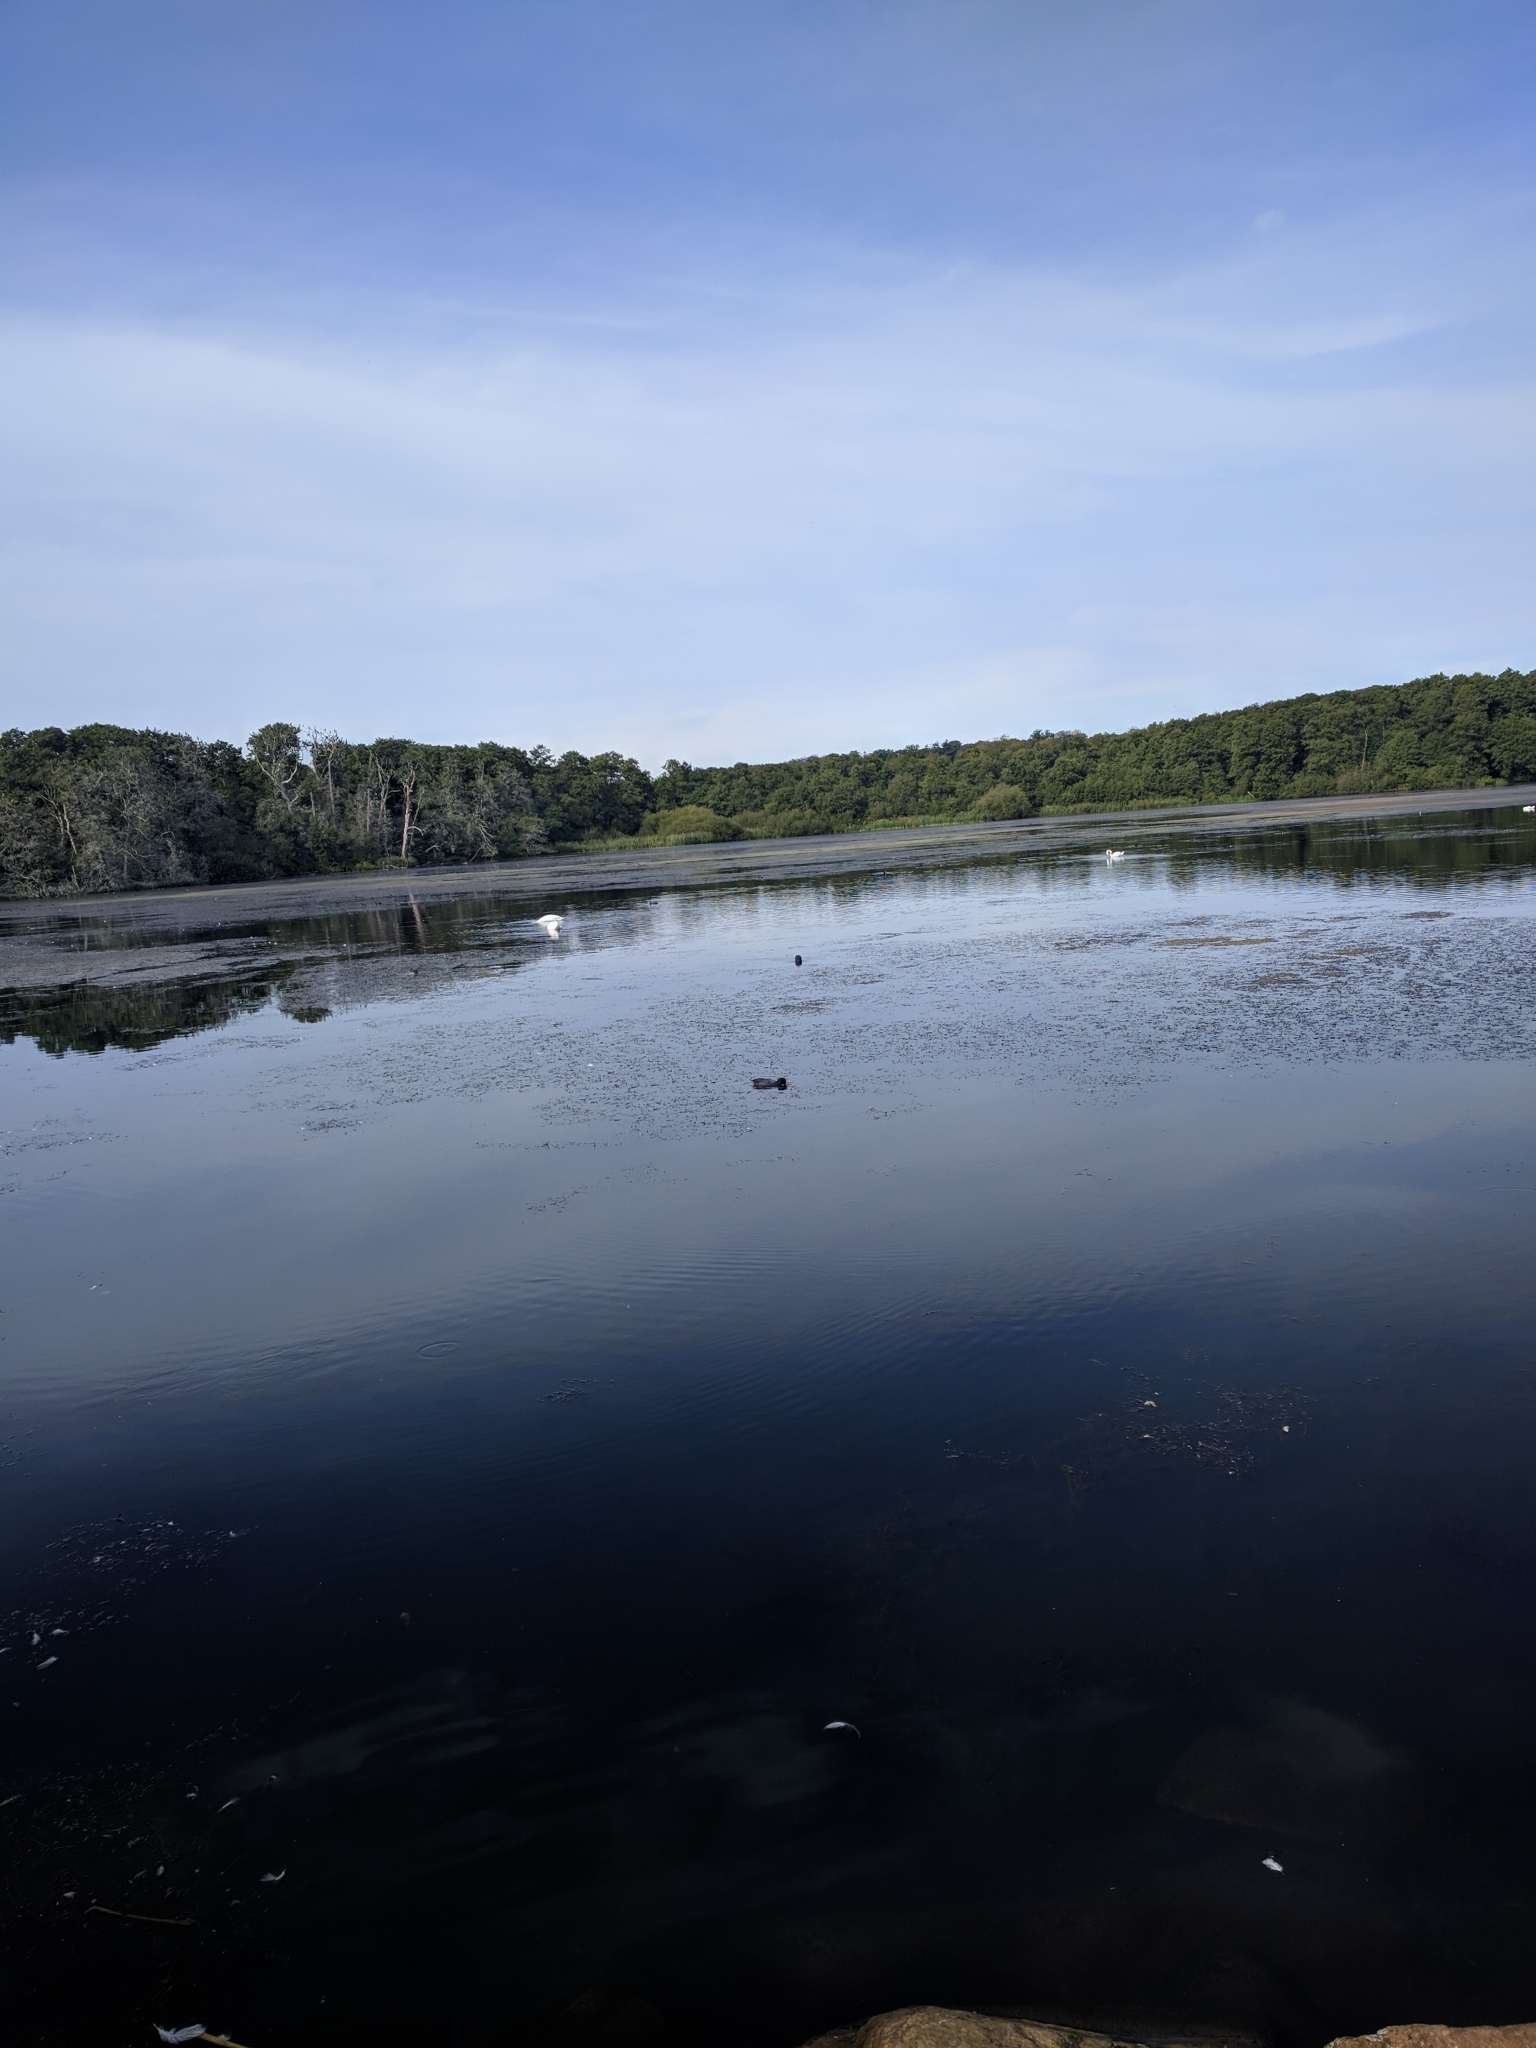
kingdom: Animalia
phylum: Chordata
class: Aves
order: Gruiformes
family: Rallidae
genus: Fulica
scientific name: Fulica atra
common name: Eurasian coot
